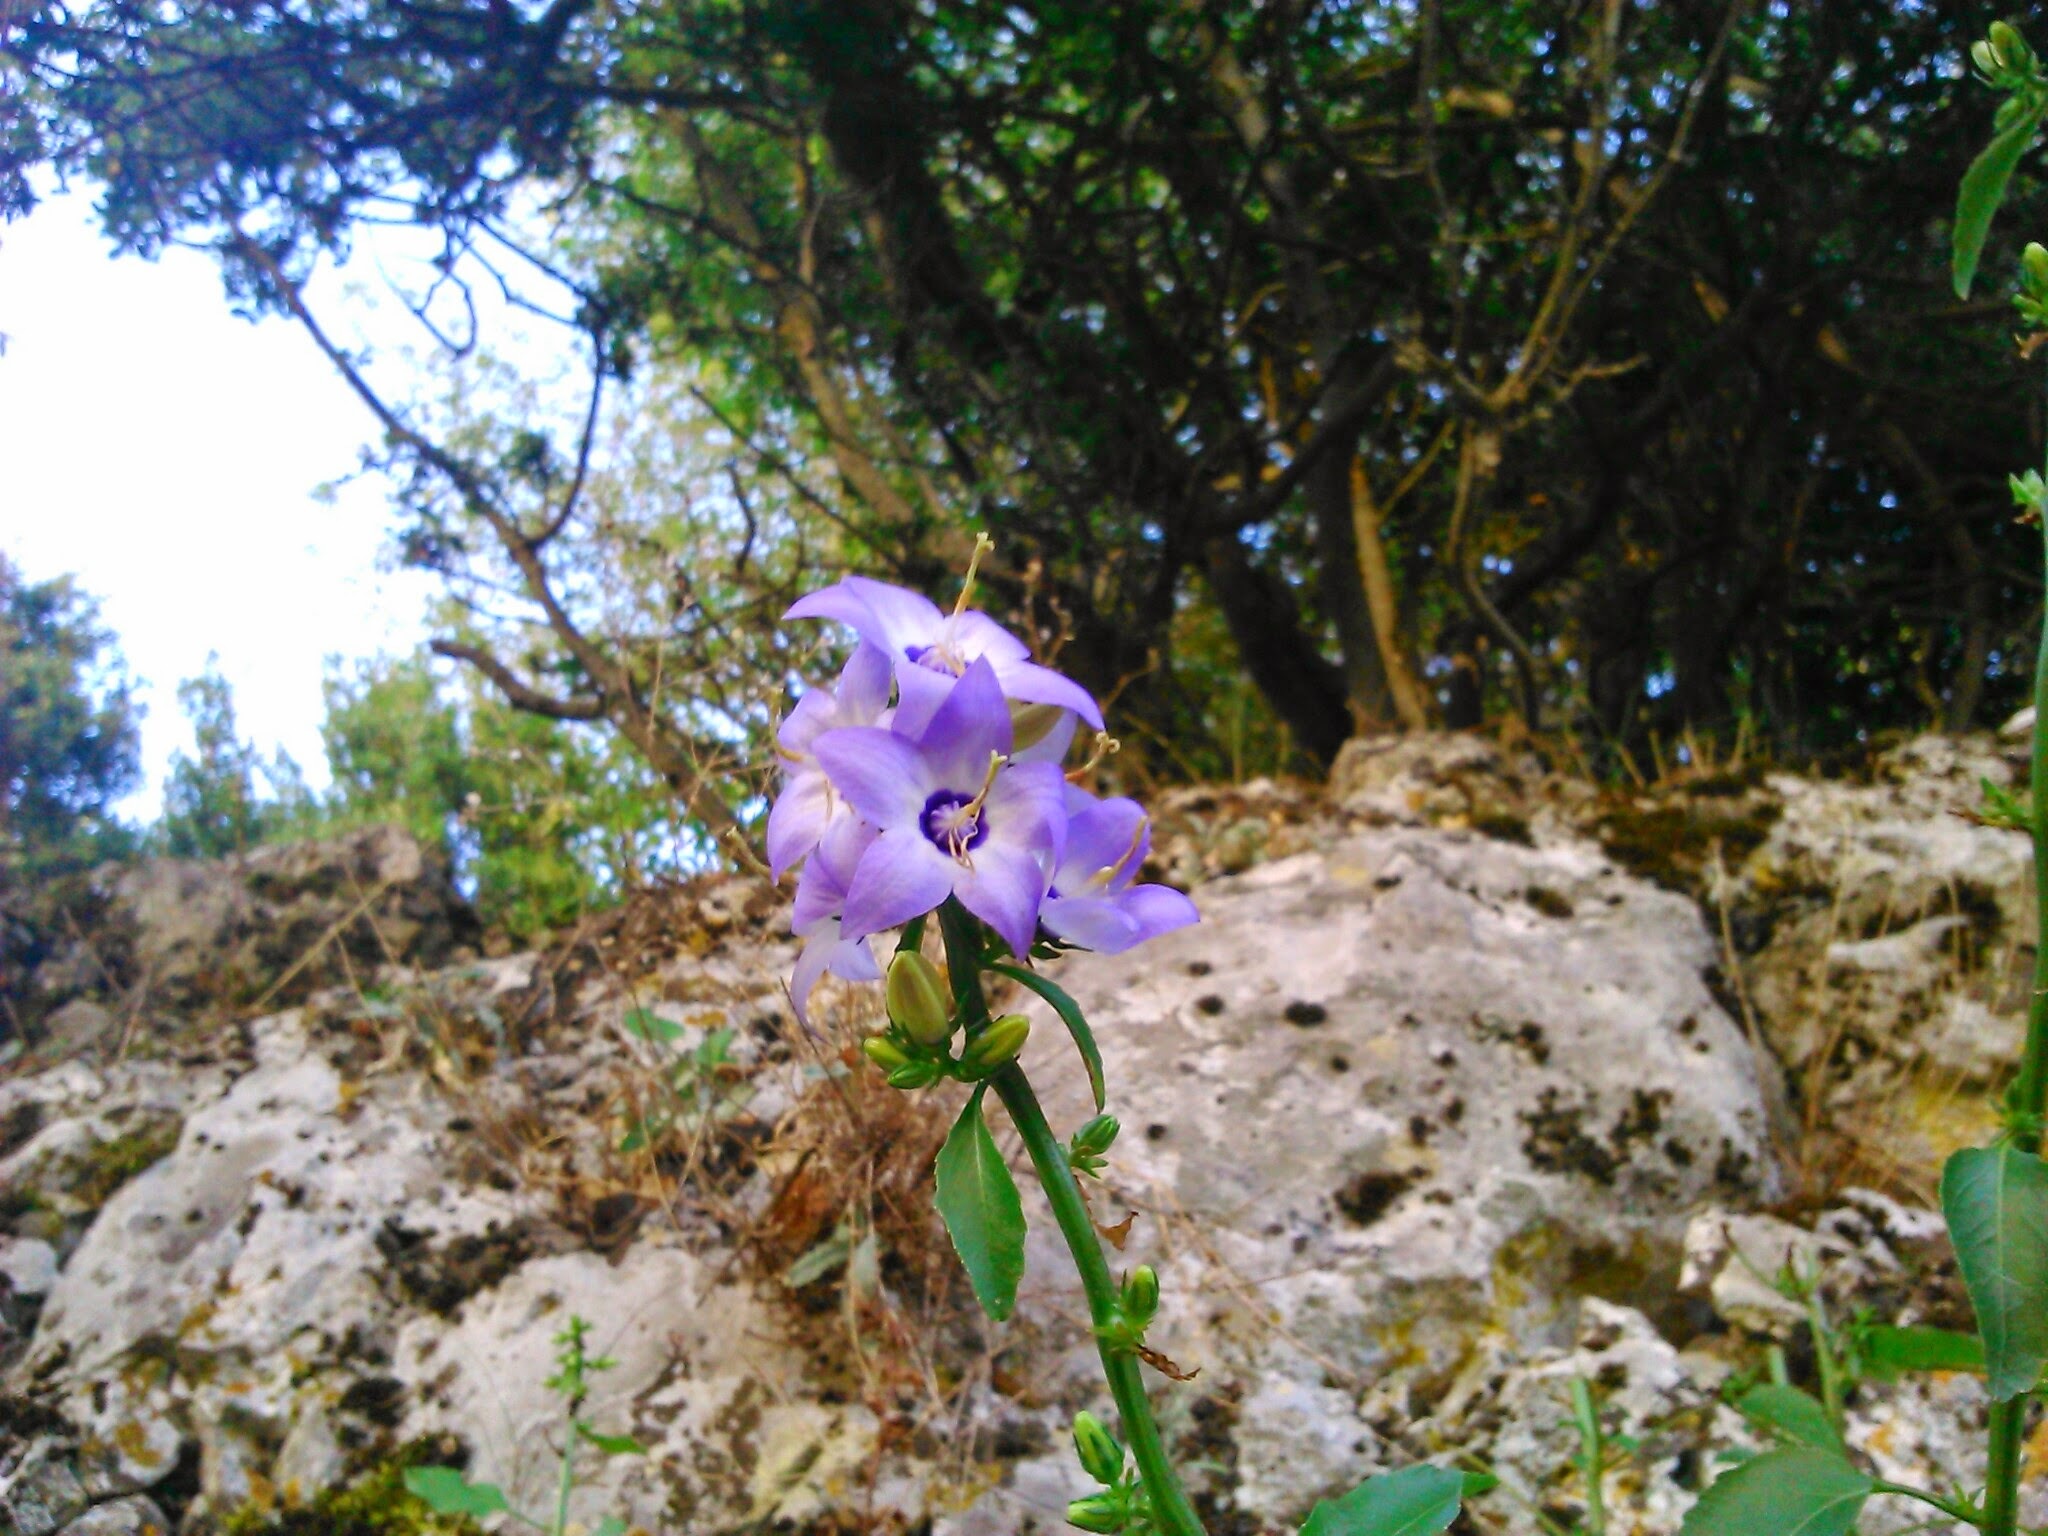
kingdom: Plantae
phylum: Tracheophyta
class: Magnoliopsida
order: Asterales
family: Campanulaceae
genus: Campanula
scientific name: Campanula versicolor
